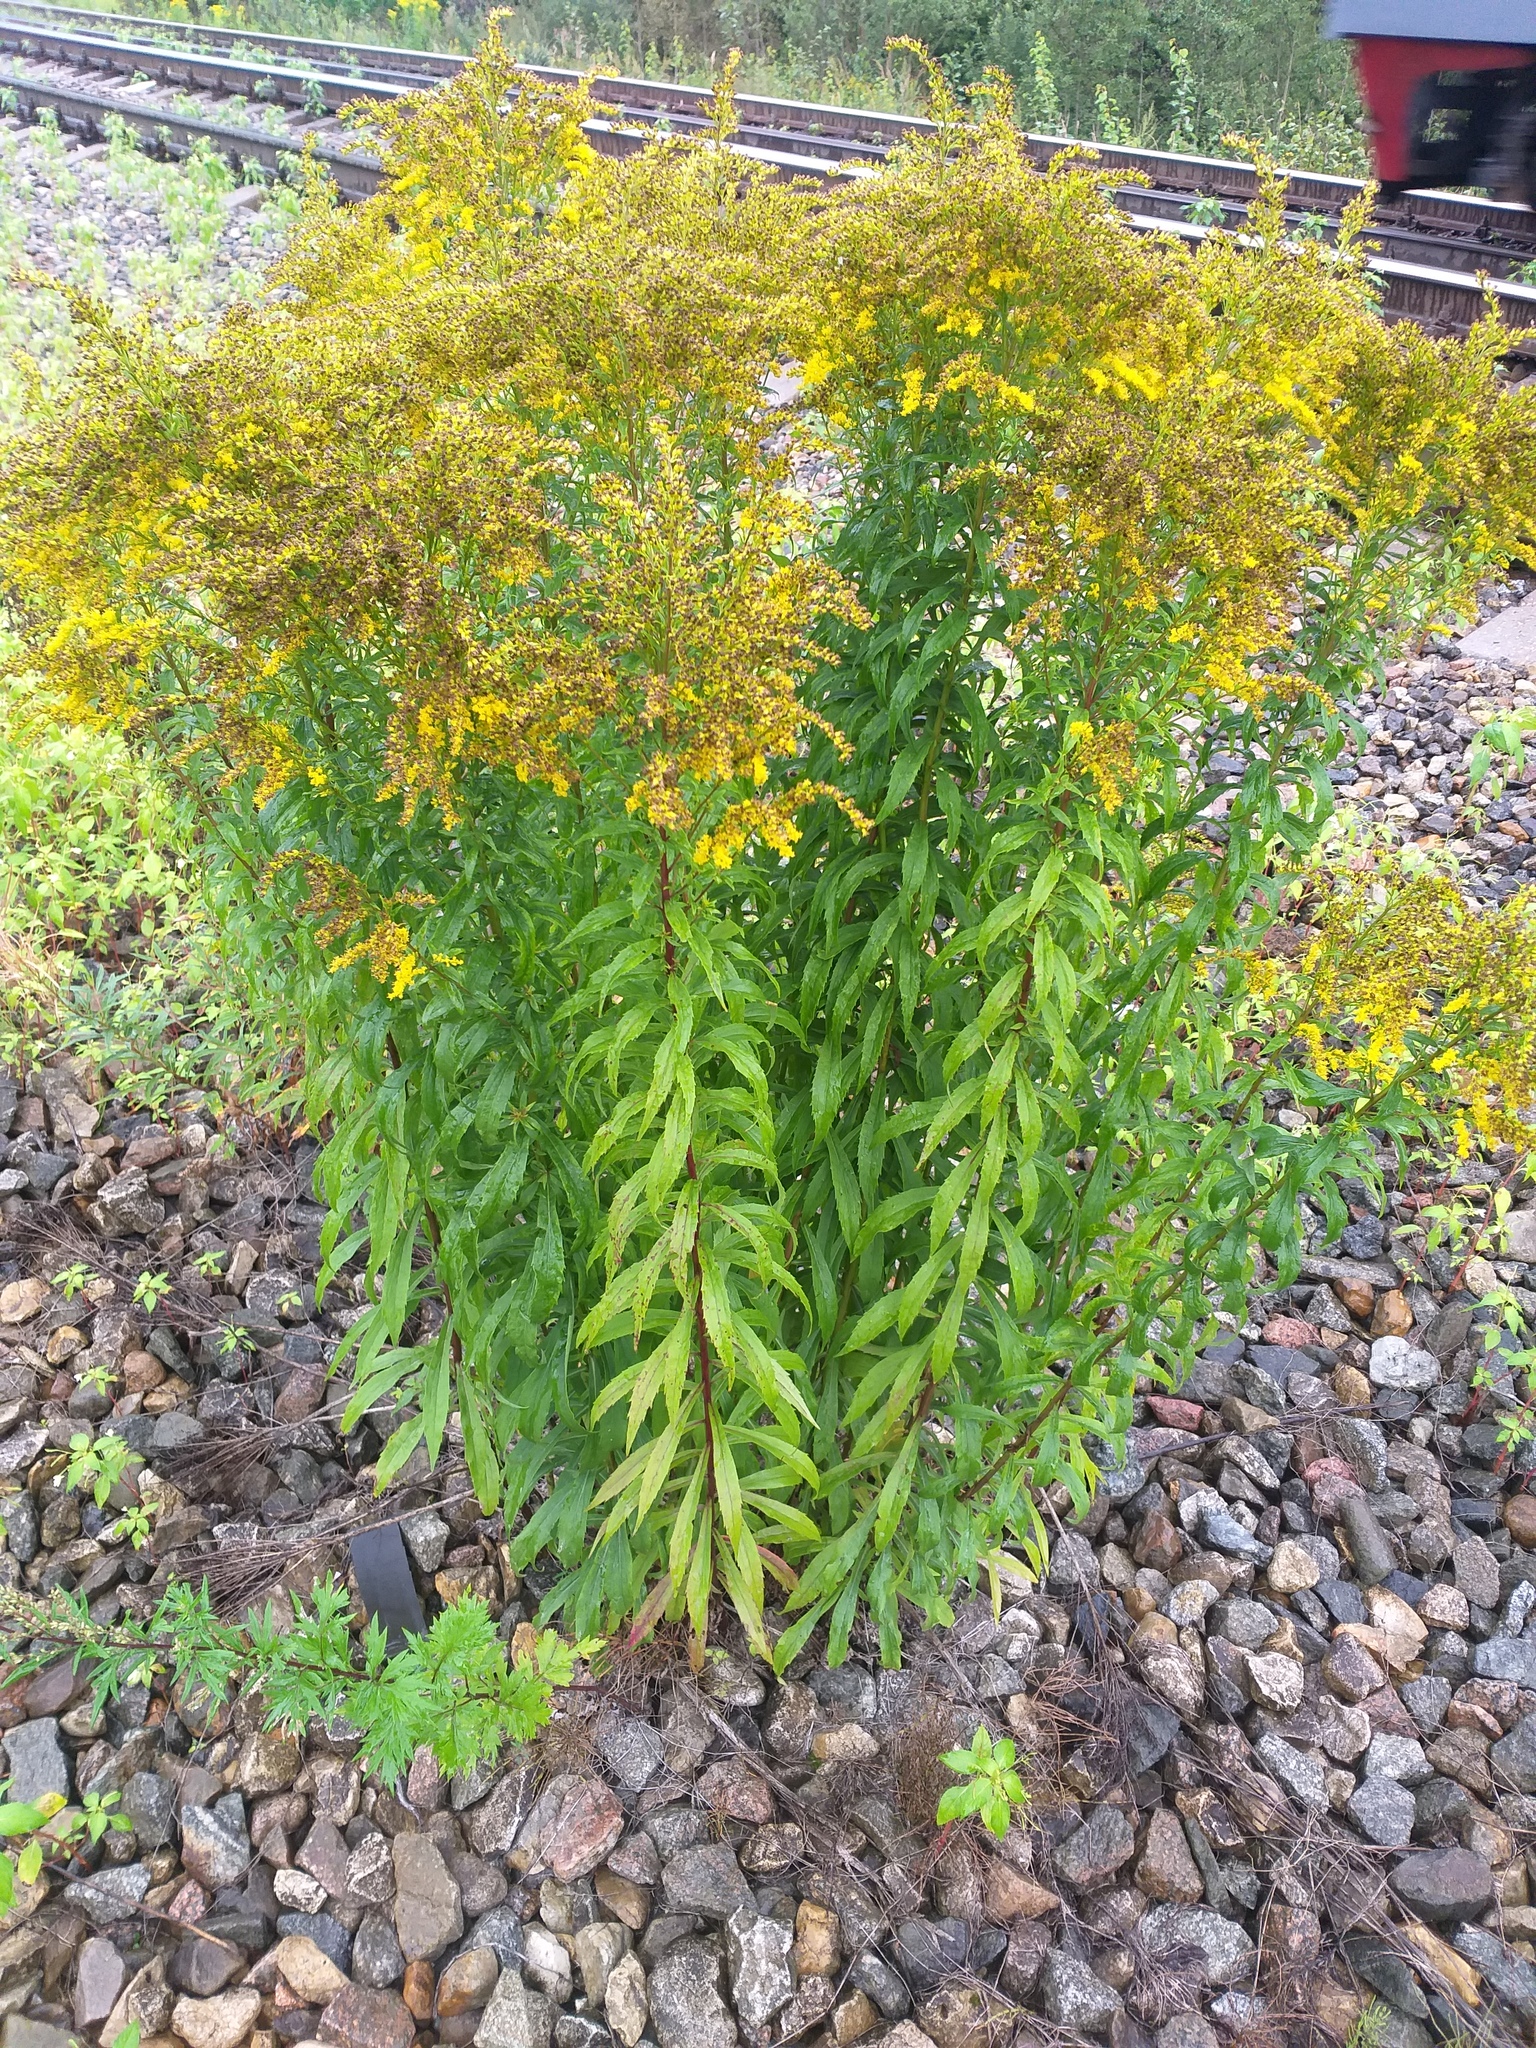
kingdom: Plantae
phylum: Tracheophyta
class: Magnoliopsida
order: Asterales
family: Asteraceae
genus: Solidago
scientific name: Solidago canadensis
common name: Canada goldenrod
